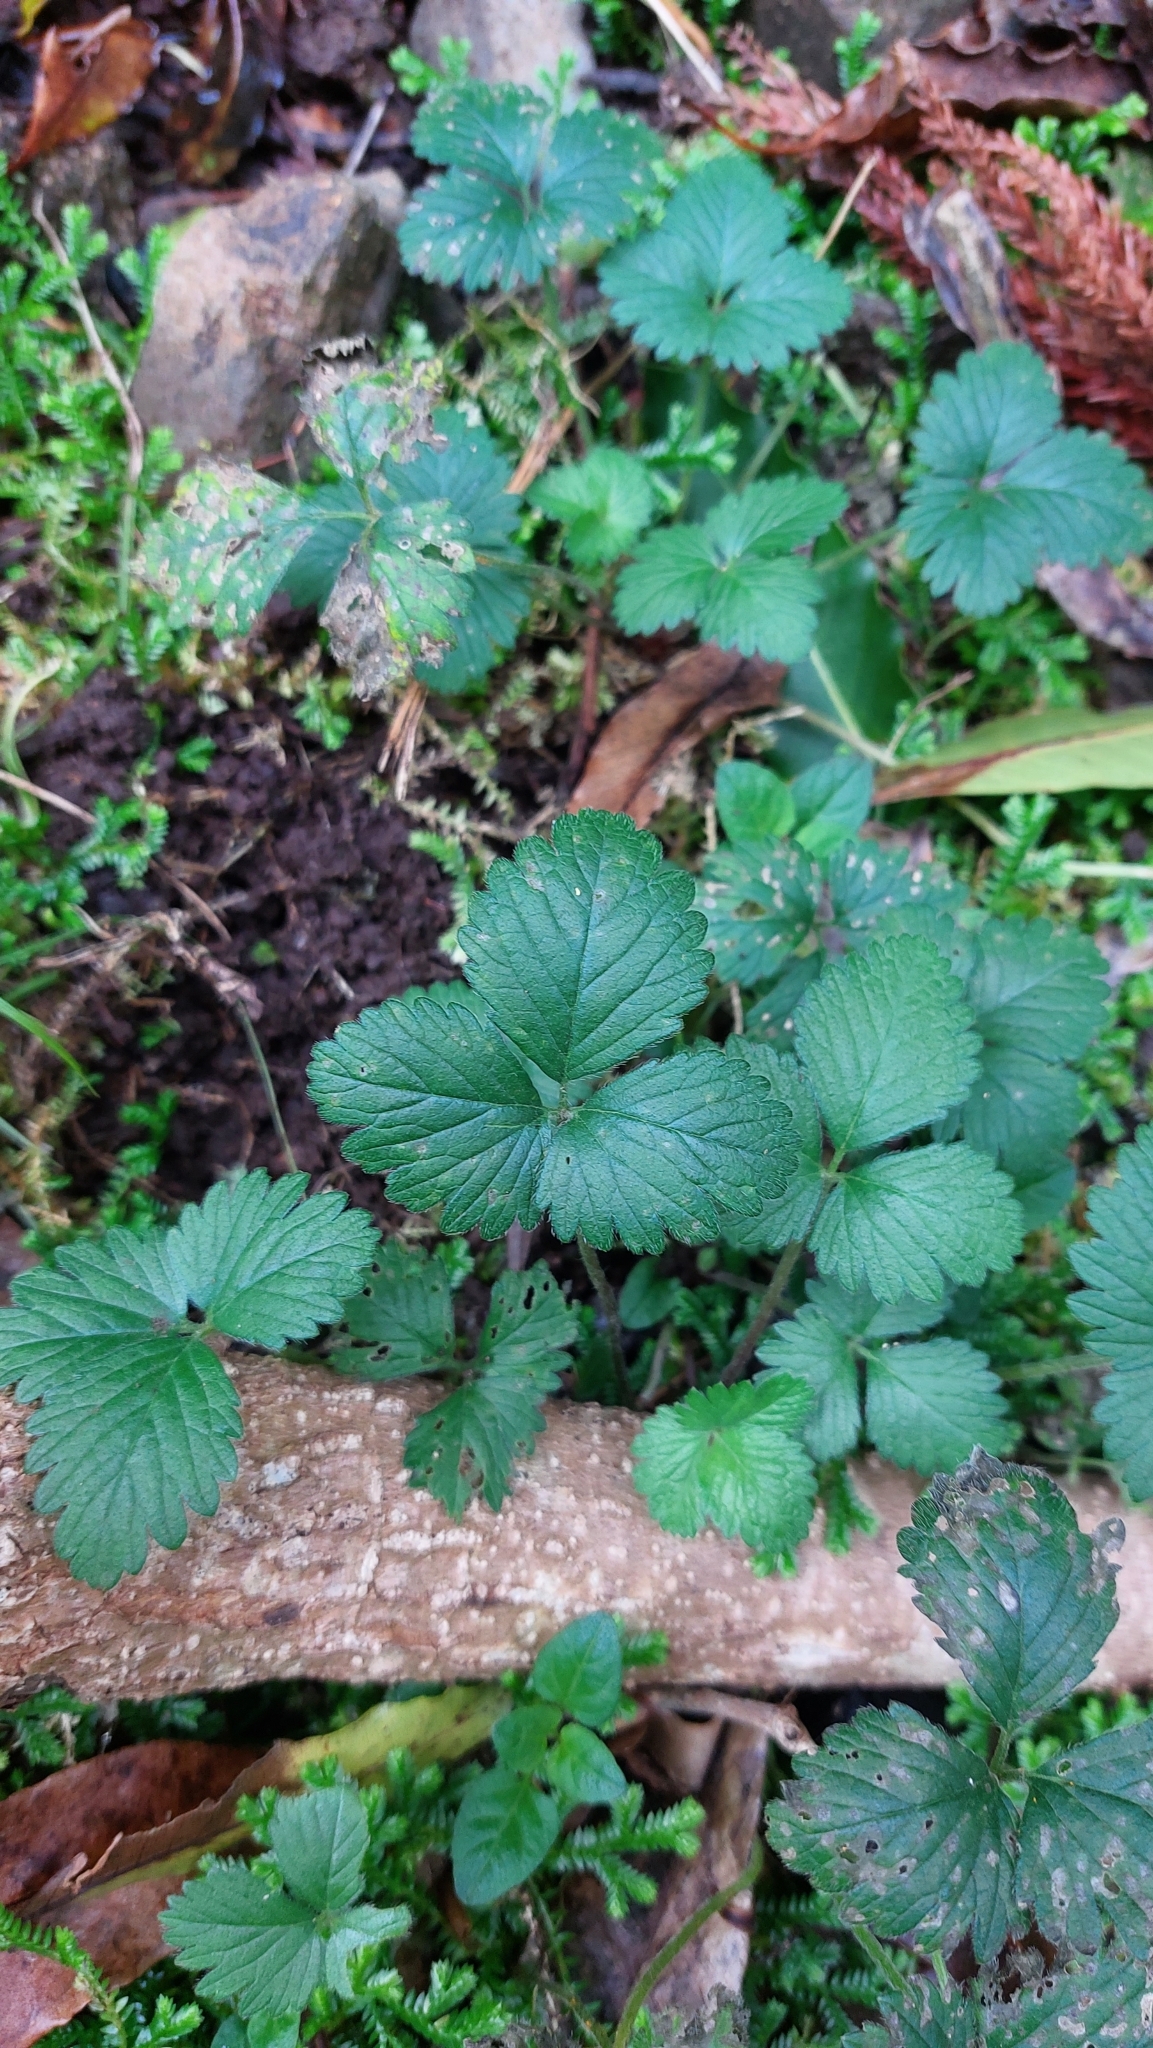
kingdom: Plantae
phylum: Tracheophyta
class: Magnoliopsida
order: Rosales
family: Rosaceae
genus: Potentilla
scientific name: Potentilla indica
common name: Yellow-flowered strawberry
